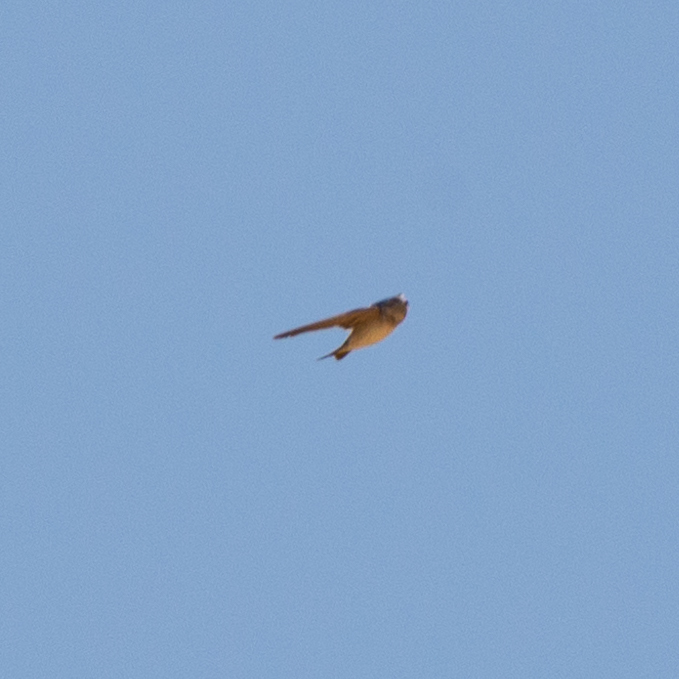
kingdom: Animalia
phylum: Chordata
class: Aves
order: Passeriformes
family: Hirundinidae
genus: Delichon
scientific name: Delichon urbicum
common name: Common house martin
